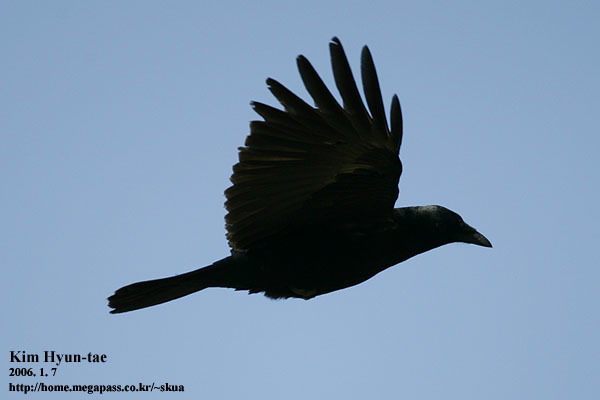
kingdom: Animalia
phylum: Chordata
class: Aves
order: Passeriformes
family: Corvidae
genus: Corvus
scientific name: Corvus corone
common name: Carrion crow
